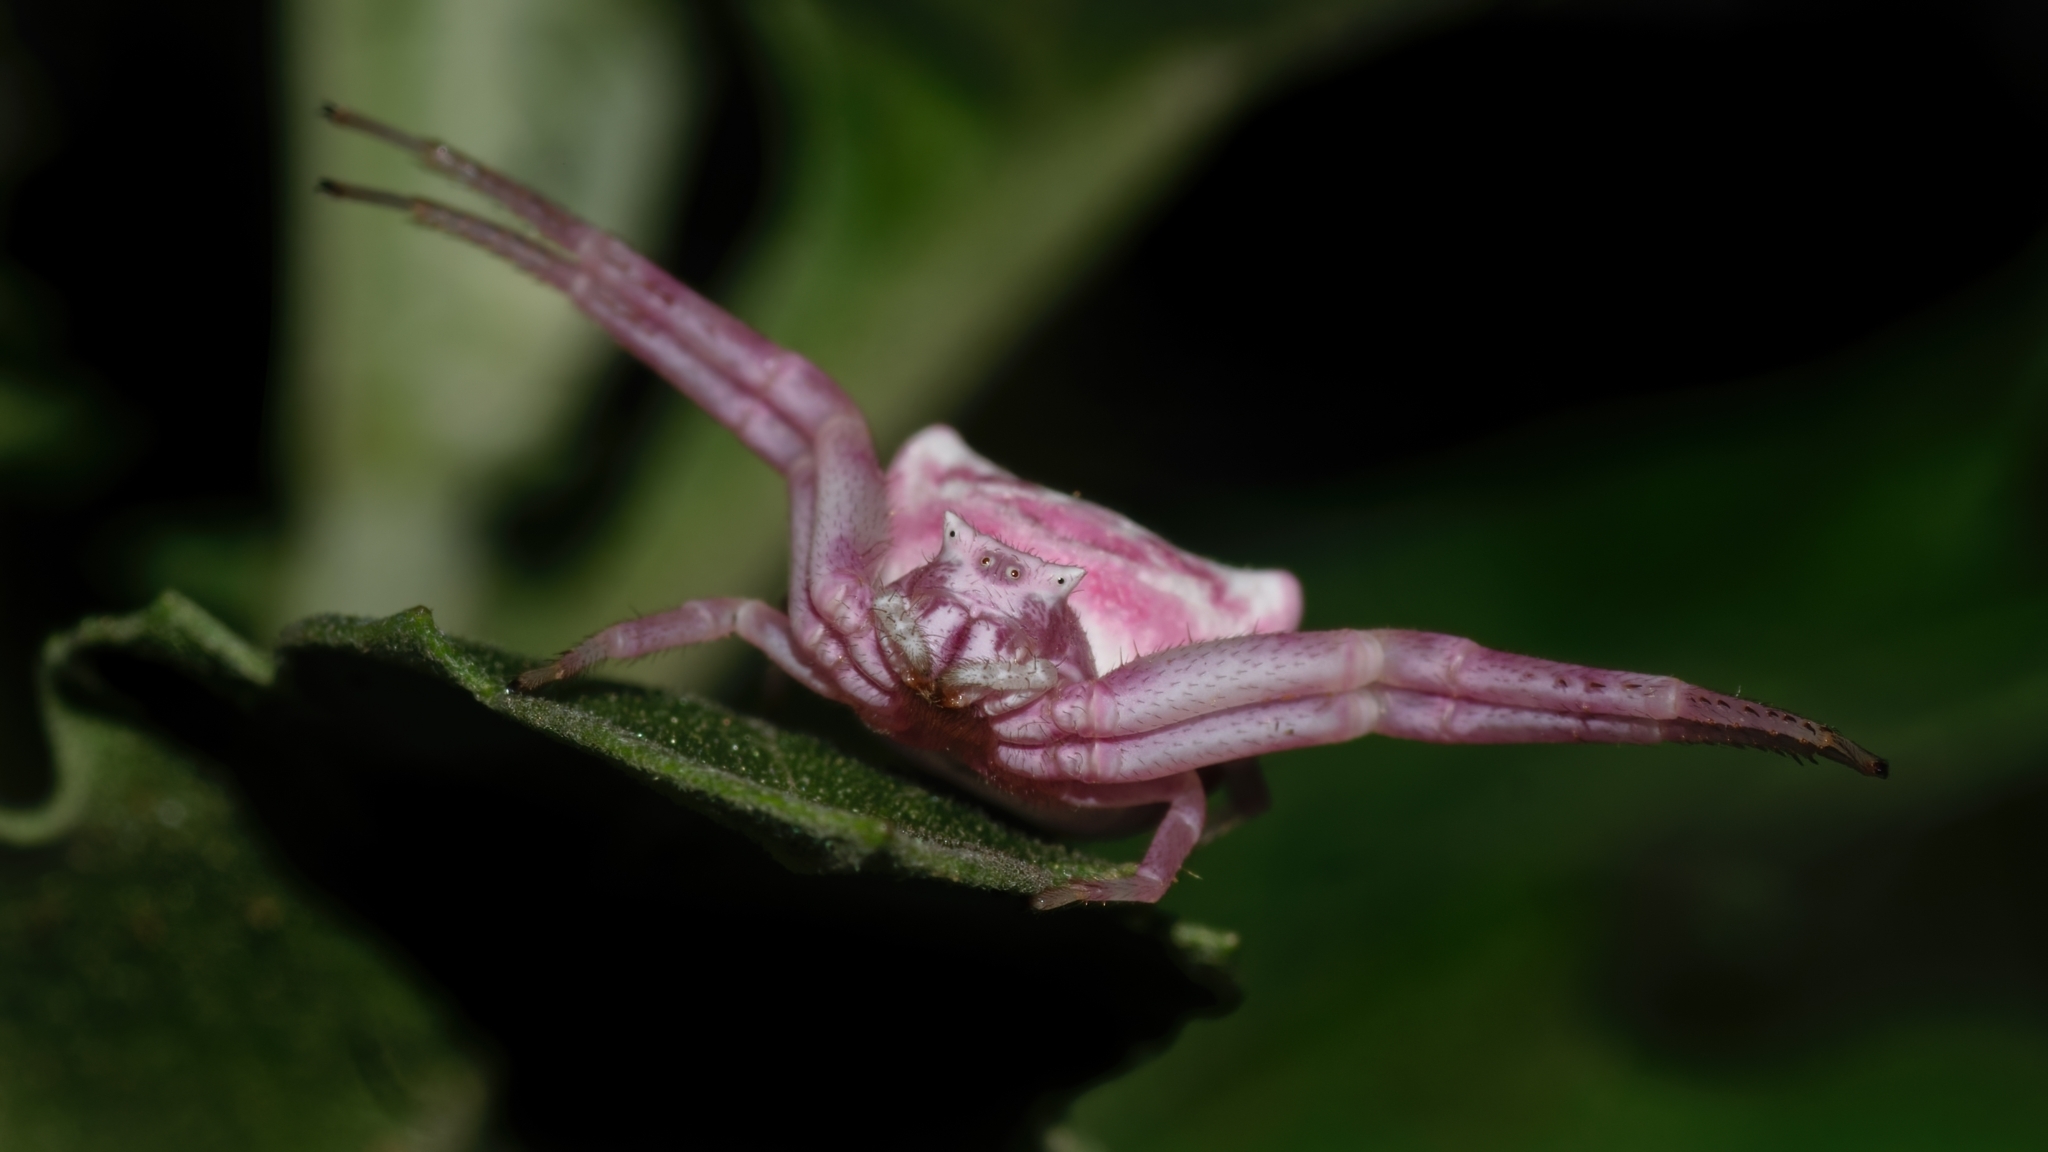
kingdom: Animalia
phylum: Arthropoda
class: Arachnida
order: Araneae
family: Thomisidae
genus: Thomisus
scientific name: Thomisus citrinellus
